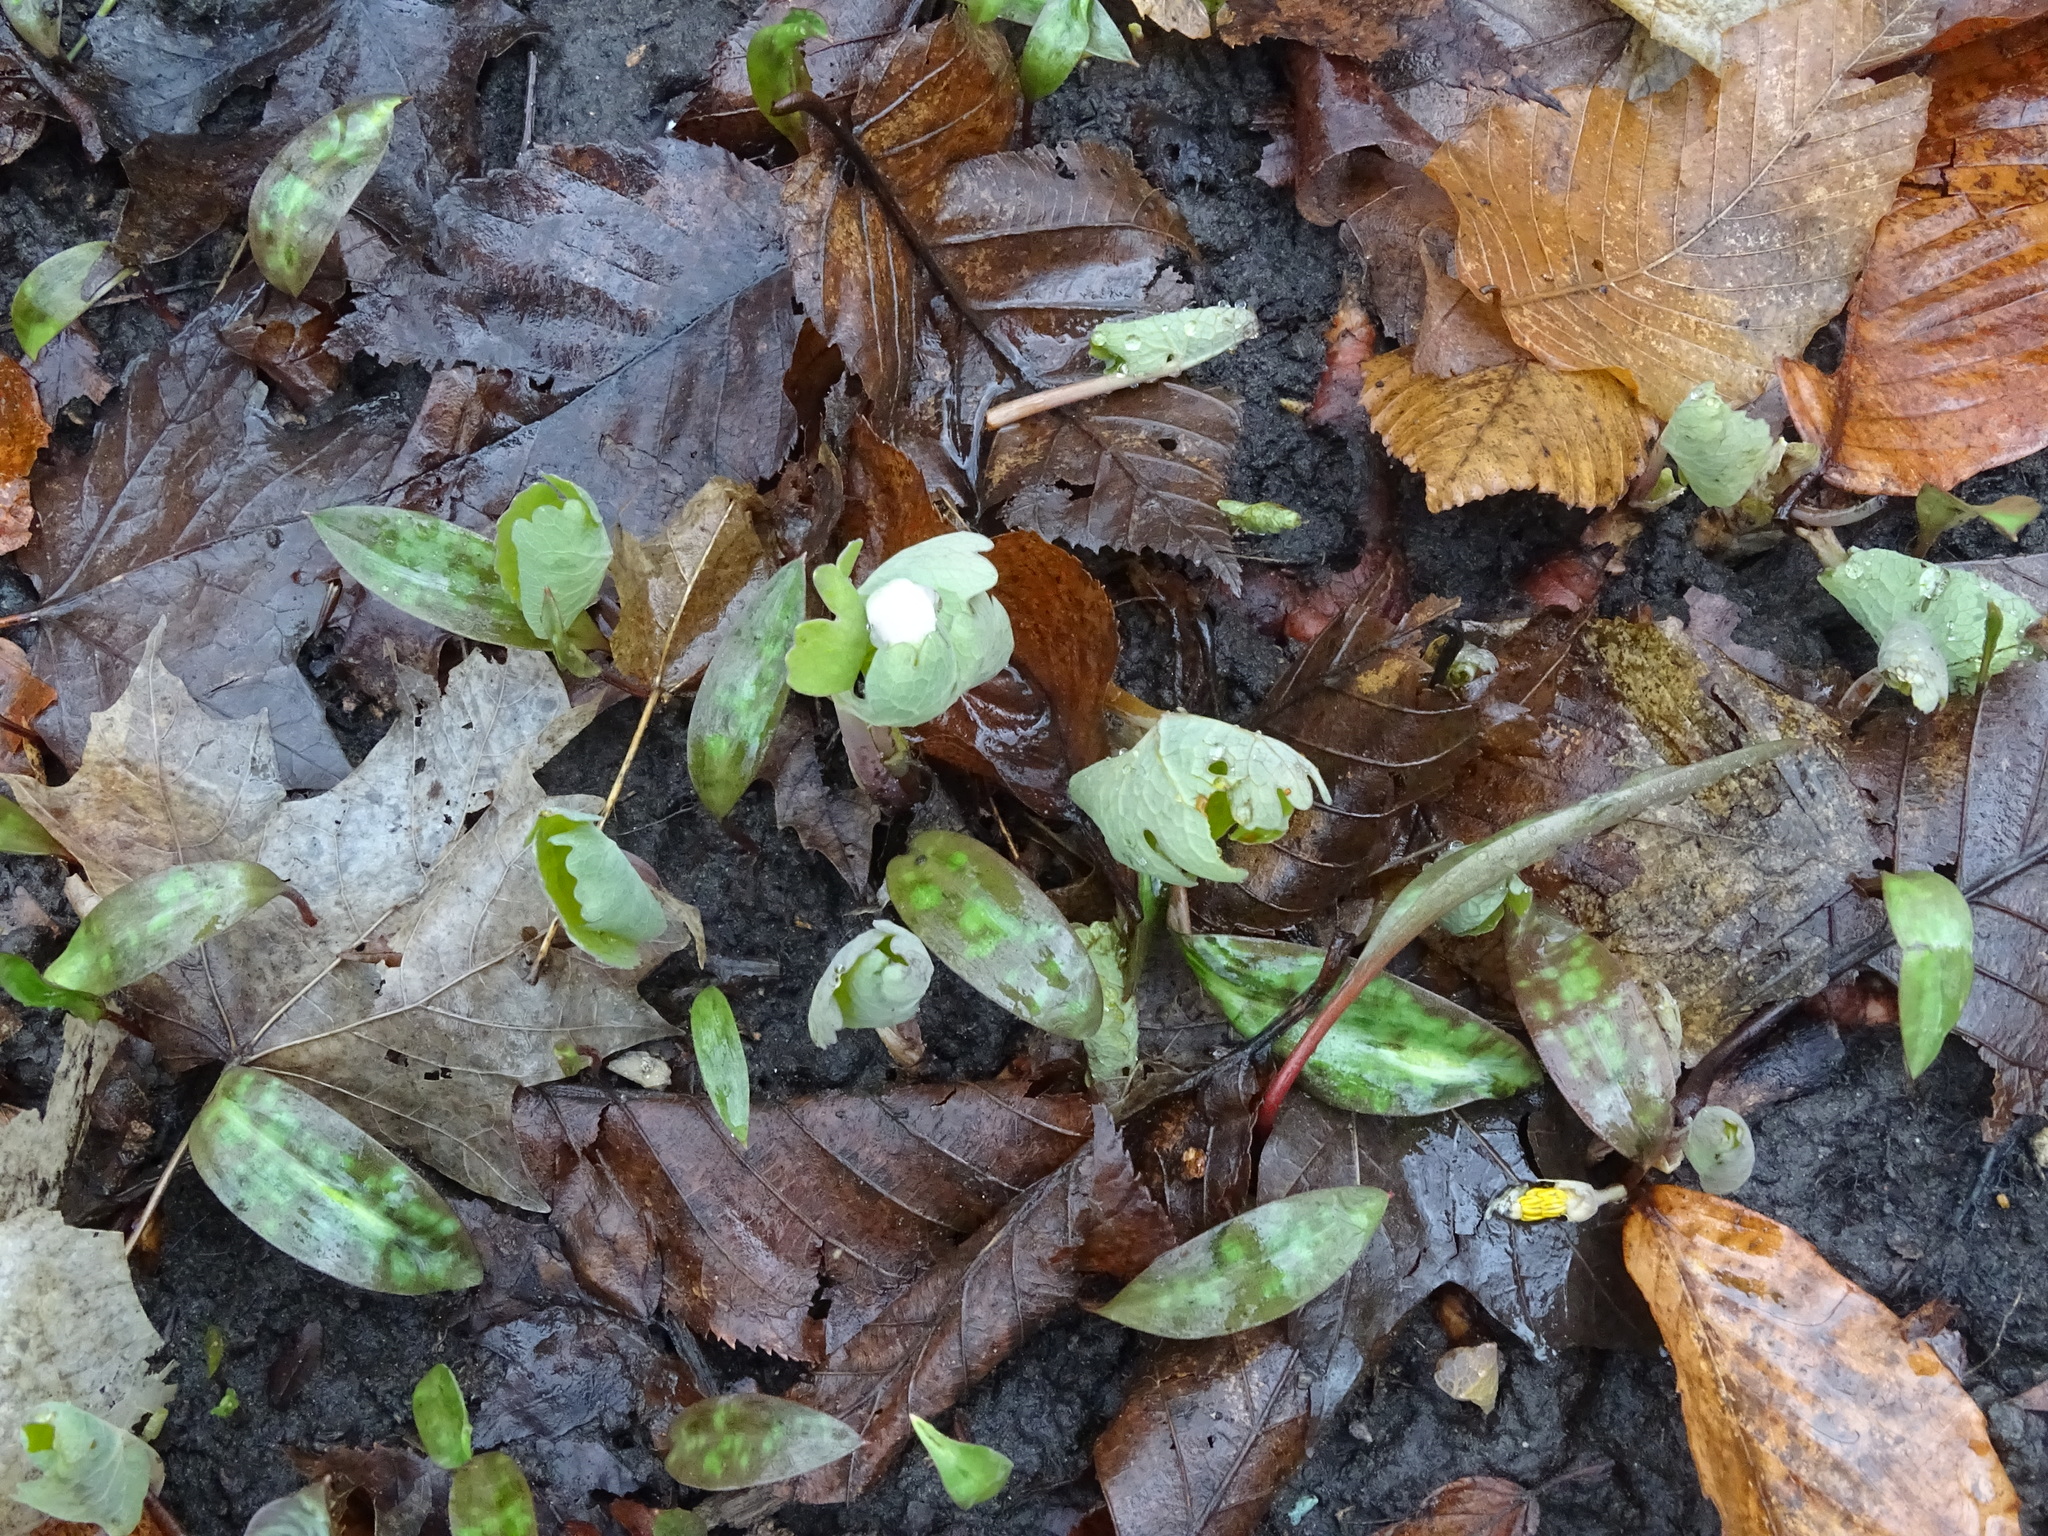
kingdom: Plantae
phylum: Tracheophyta
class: Magnoliopsida
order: Ranunculales
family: Papaveraceae
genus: Sanguinaria
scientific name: Sanguinaria canadensis
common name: Bloodroot
